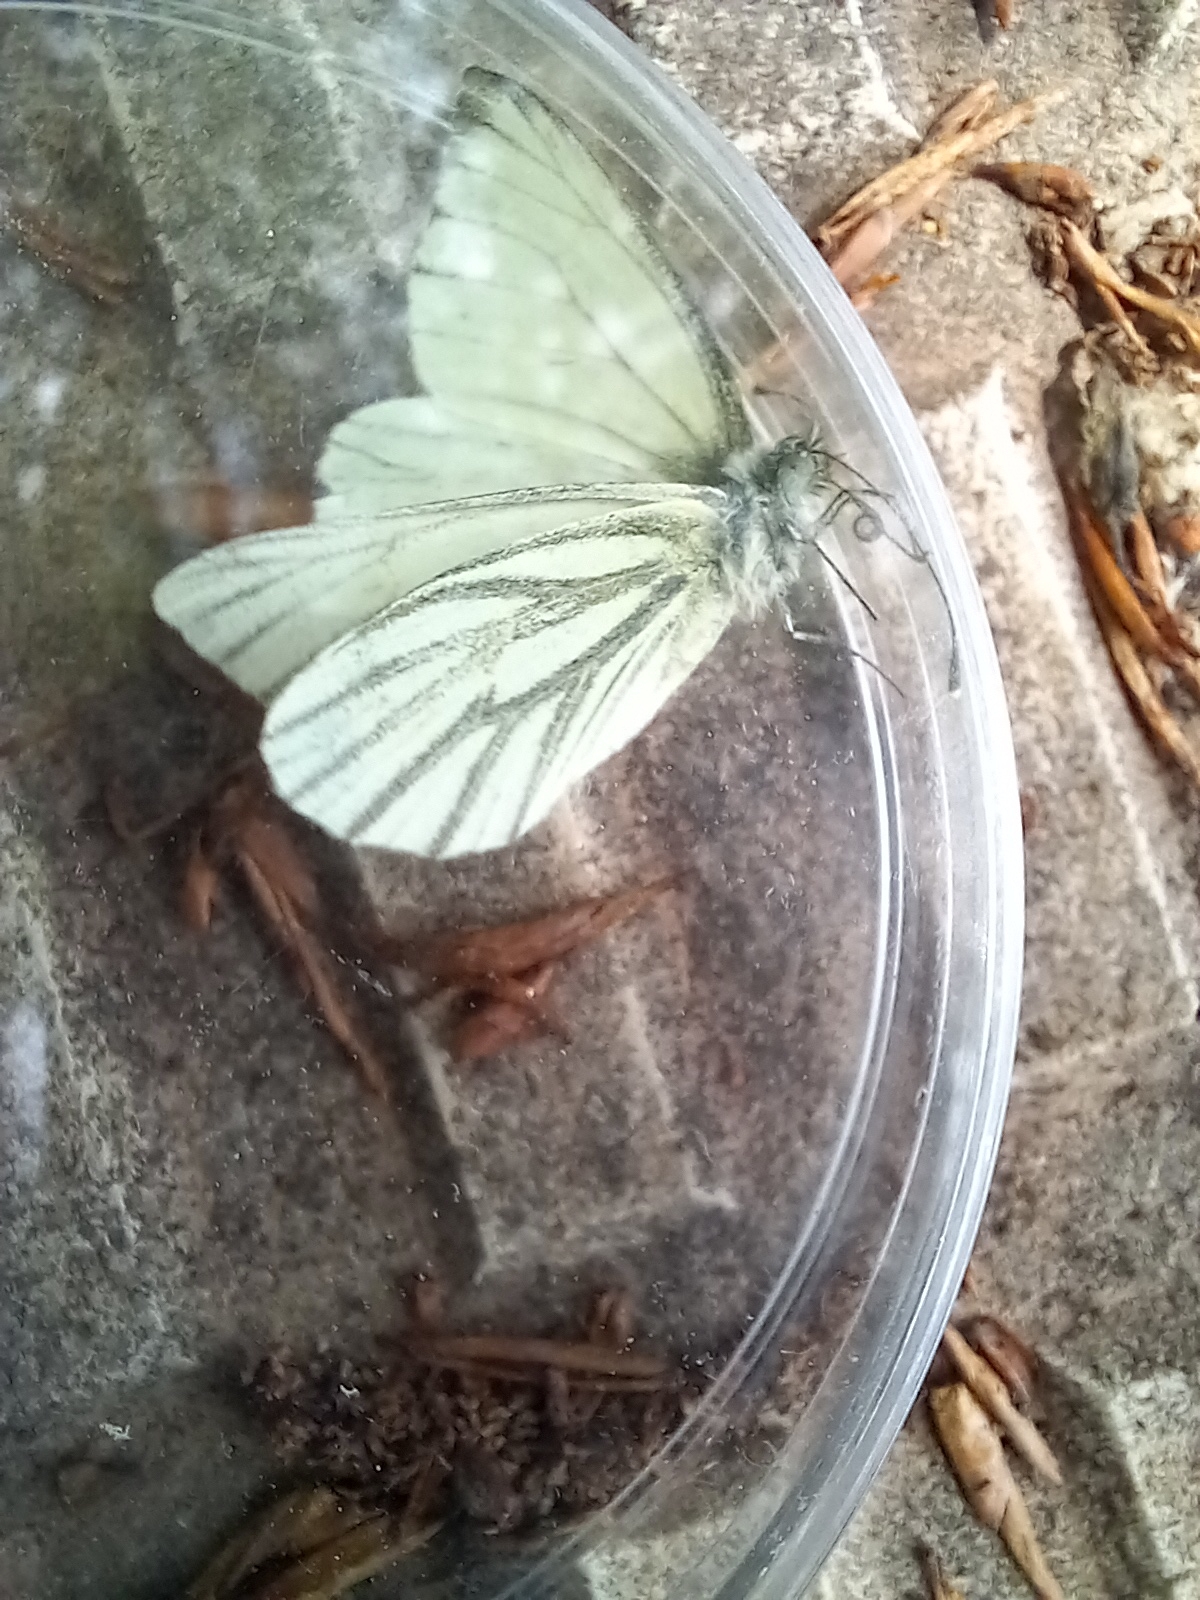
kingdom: Animalia
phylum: Arthropoda
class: Insecta
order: Lepidoptera
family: Pieridae
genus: Pieris
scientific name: Pieris napi
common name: Green-veined white
